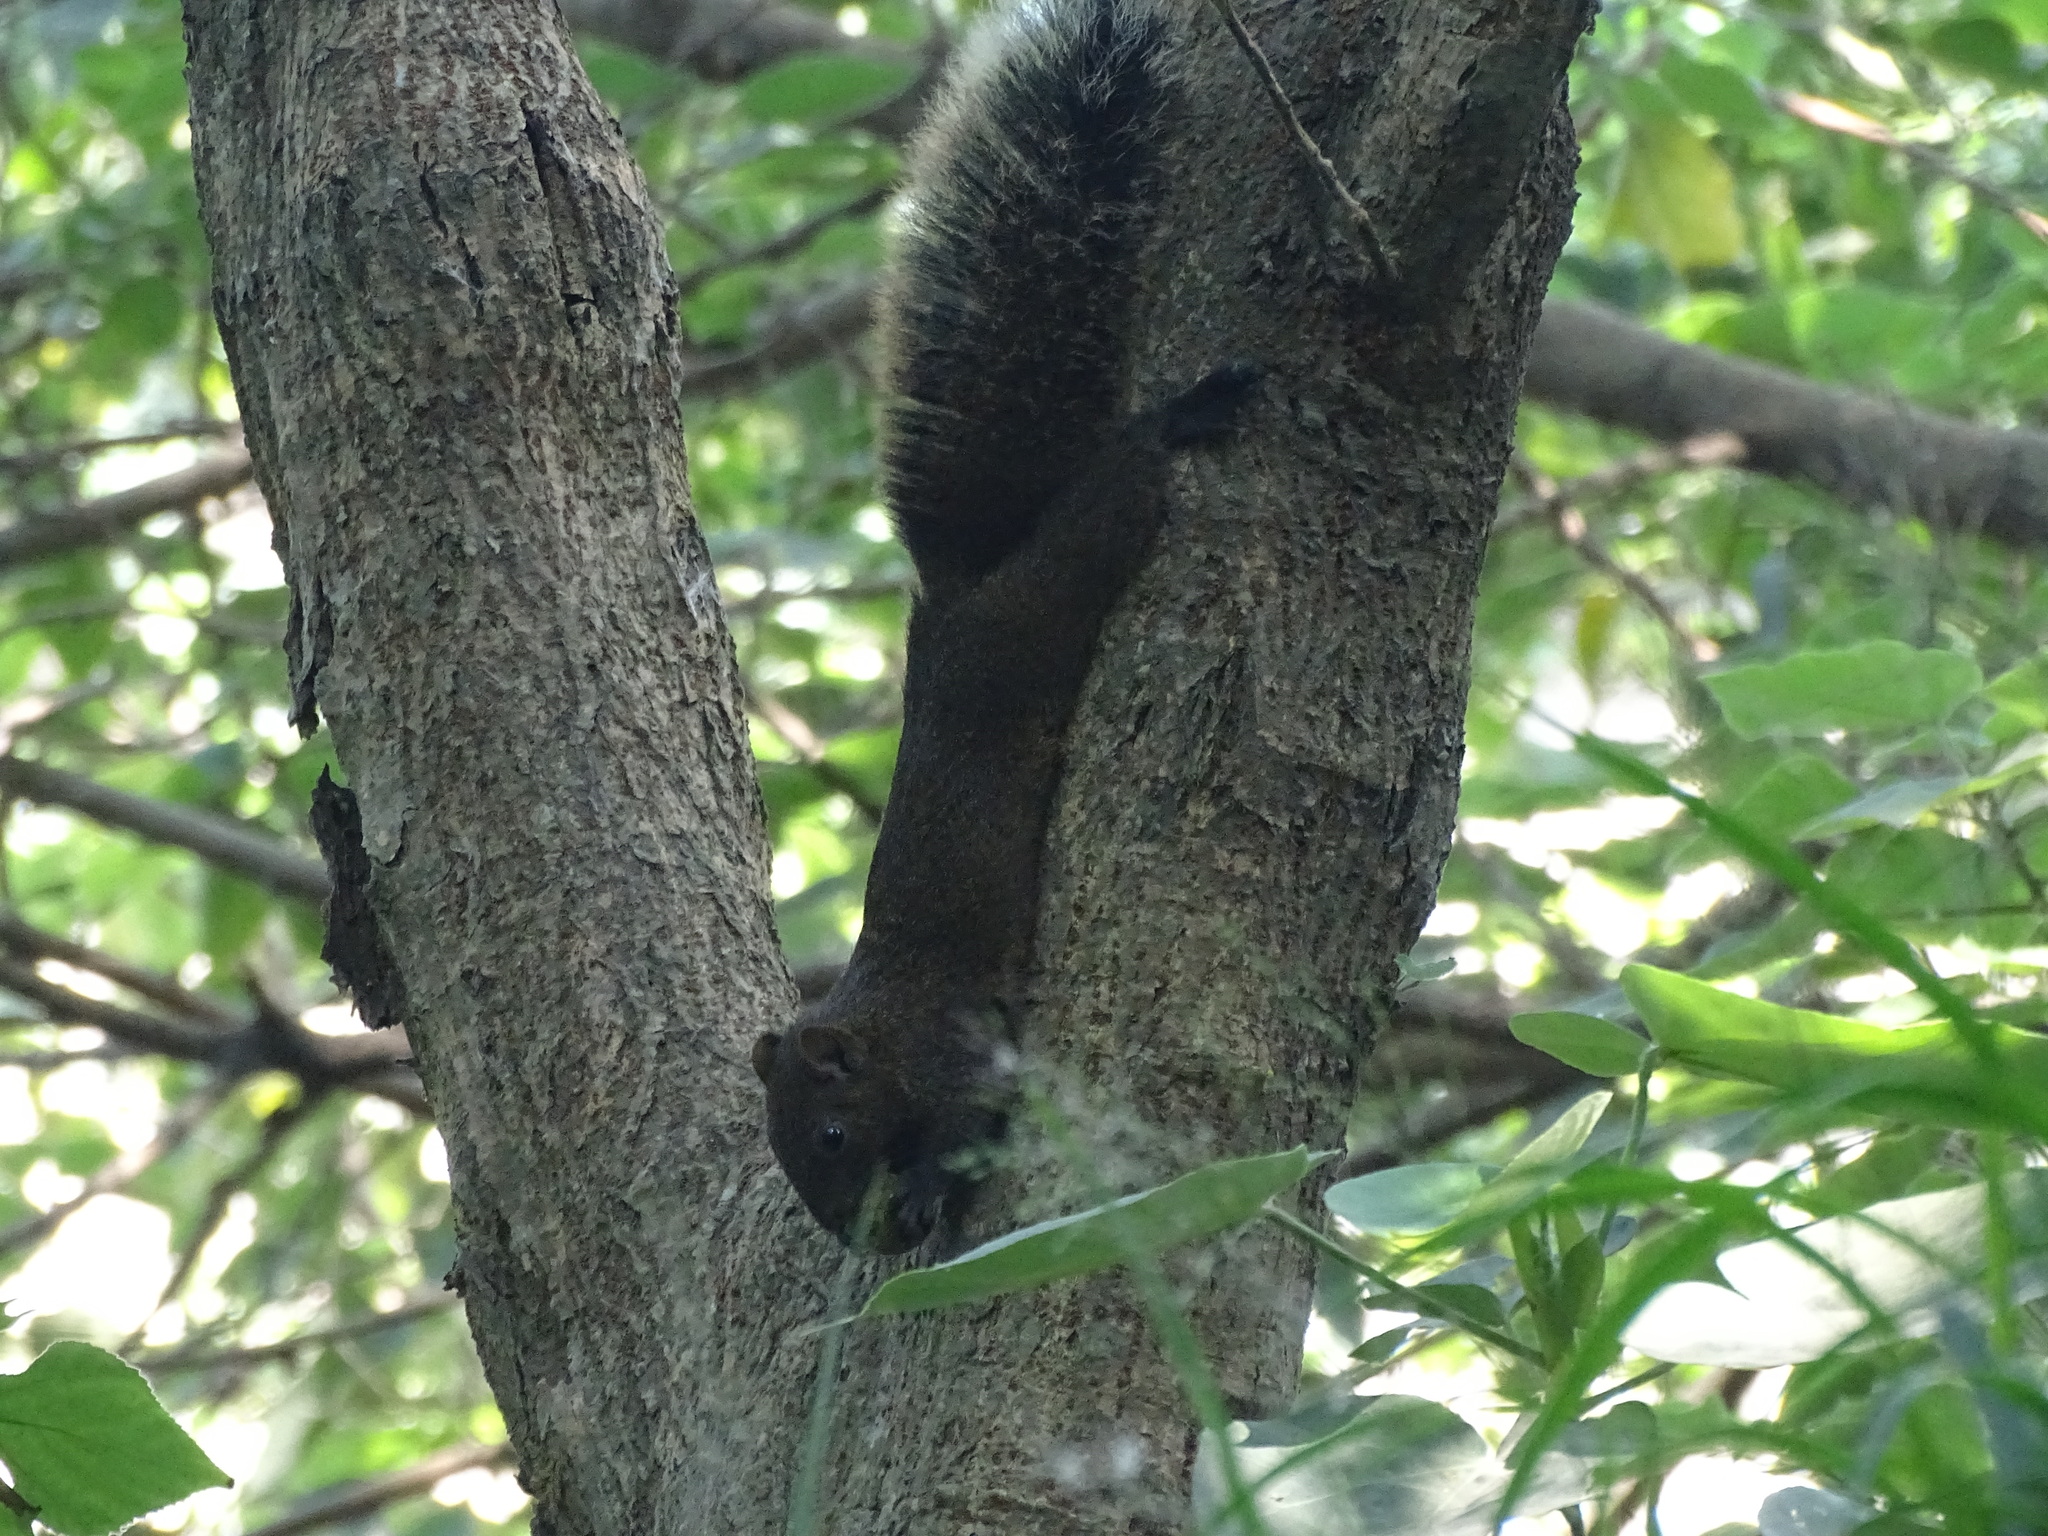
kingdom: Animalia
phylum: Chordata
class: Mammalia
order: Rodentia
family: Sciuridae
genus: Callosciurus
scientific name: Callosciurus erythraeus
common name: Pallas's squirrel
